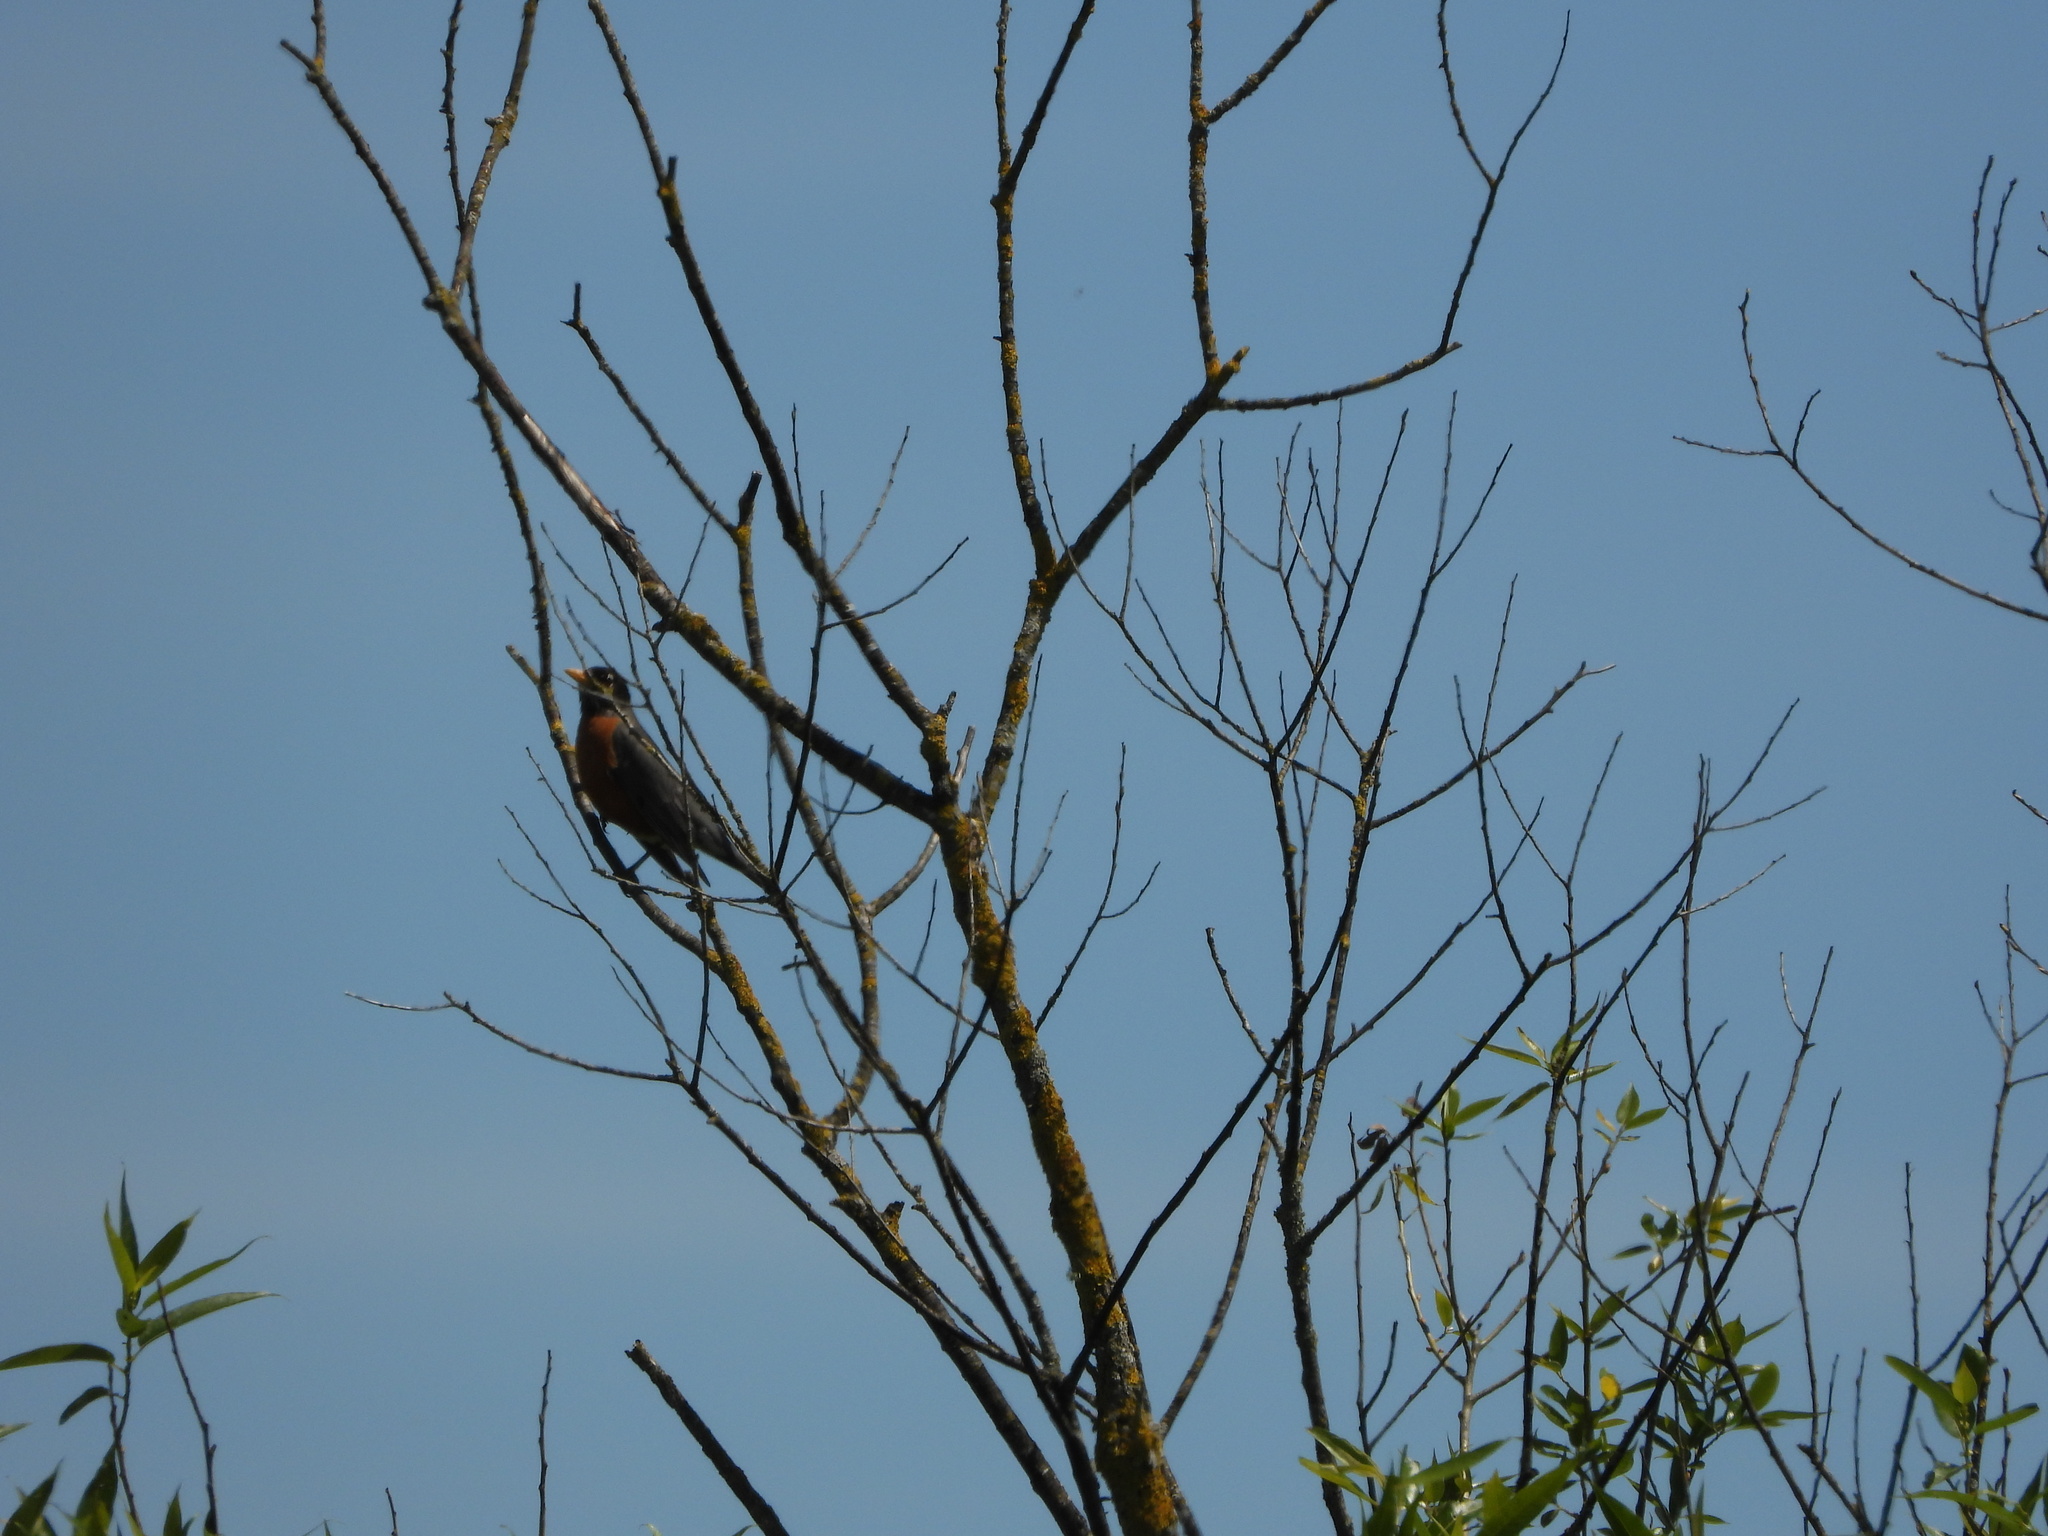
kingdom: Animalia
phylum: Chordata
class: Aves
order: Passeriformes
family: Turdidae
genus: Turdus
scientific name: Turdus migratorius
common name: American robin
